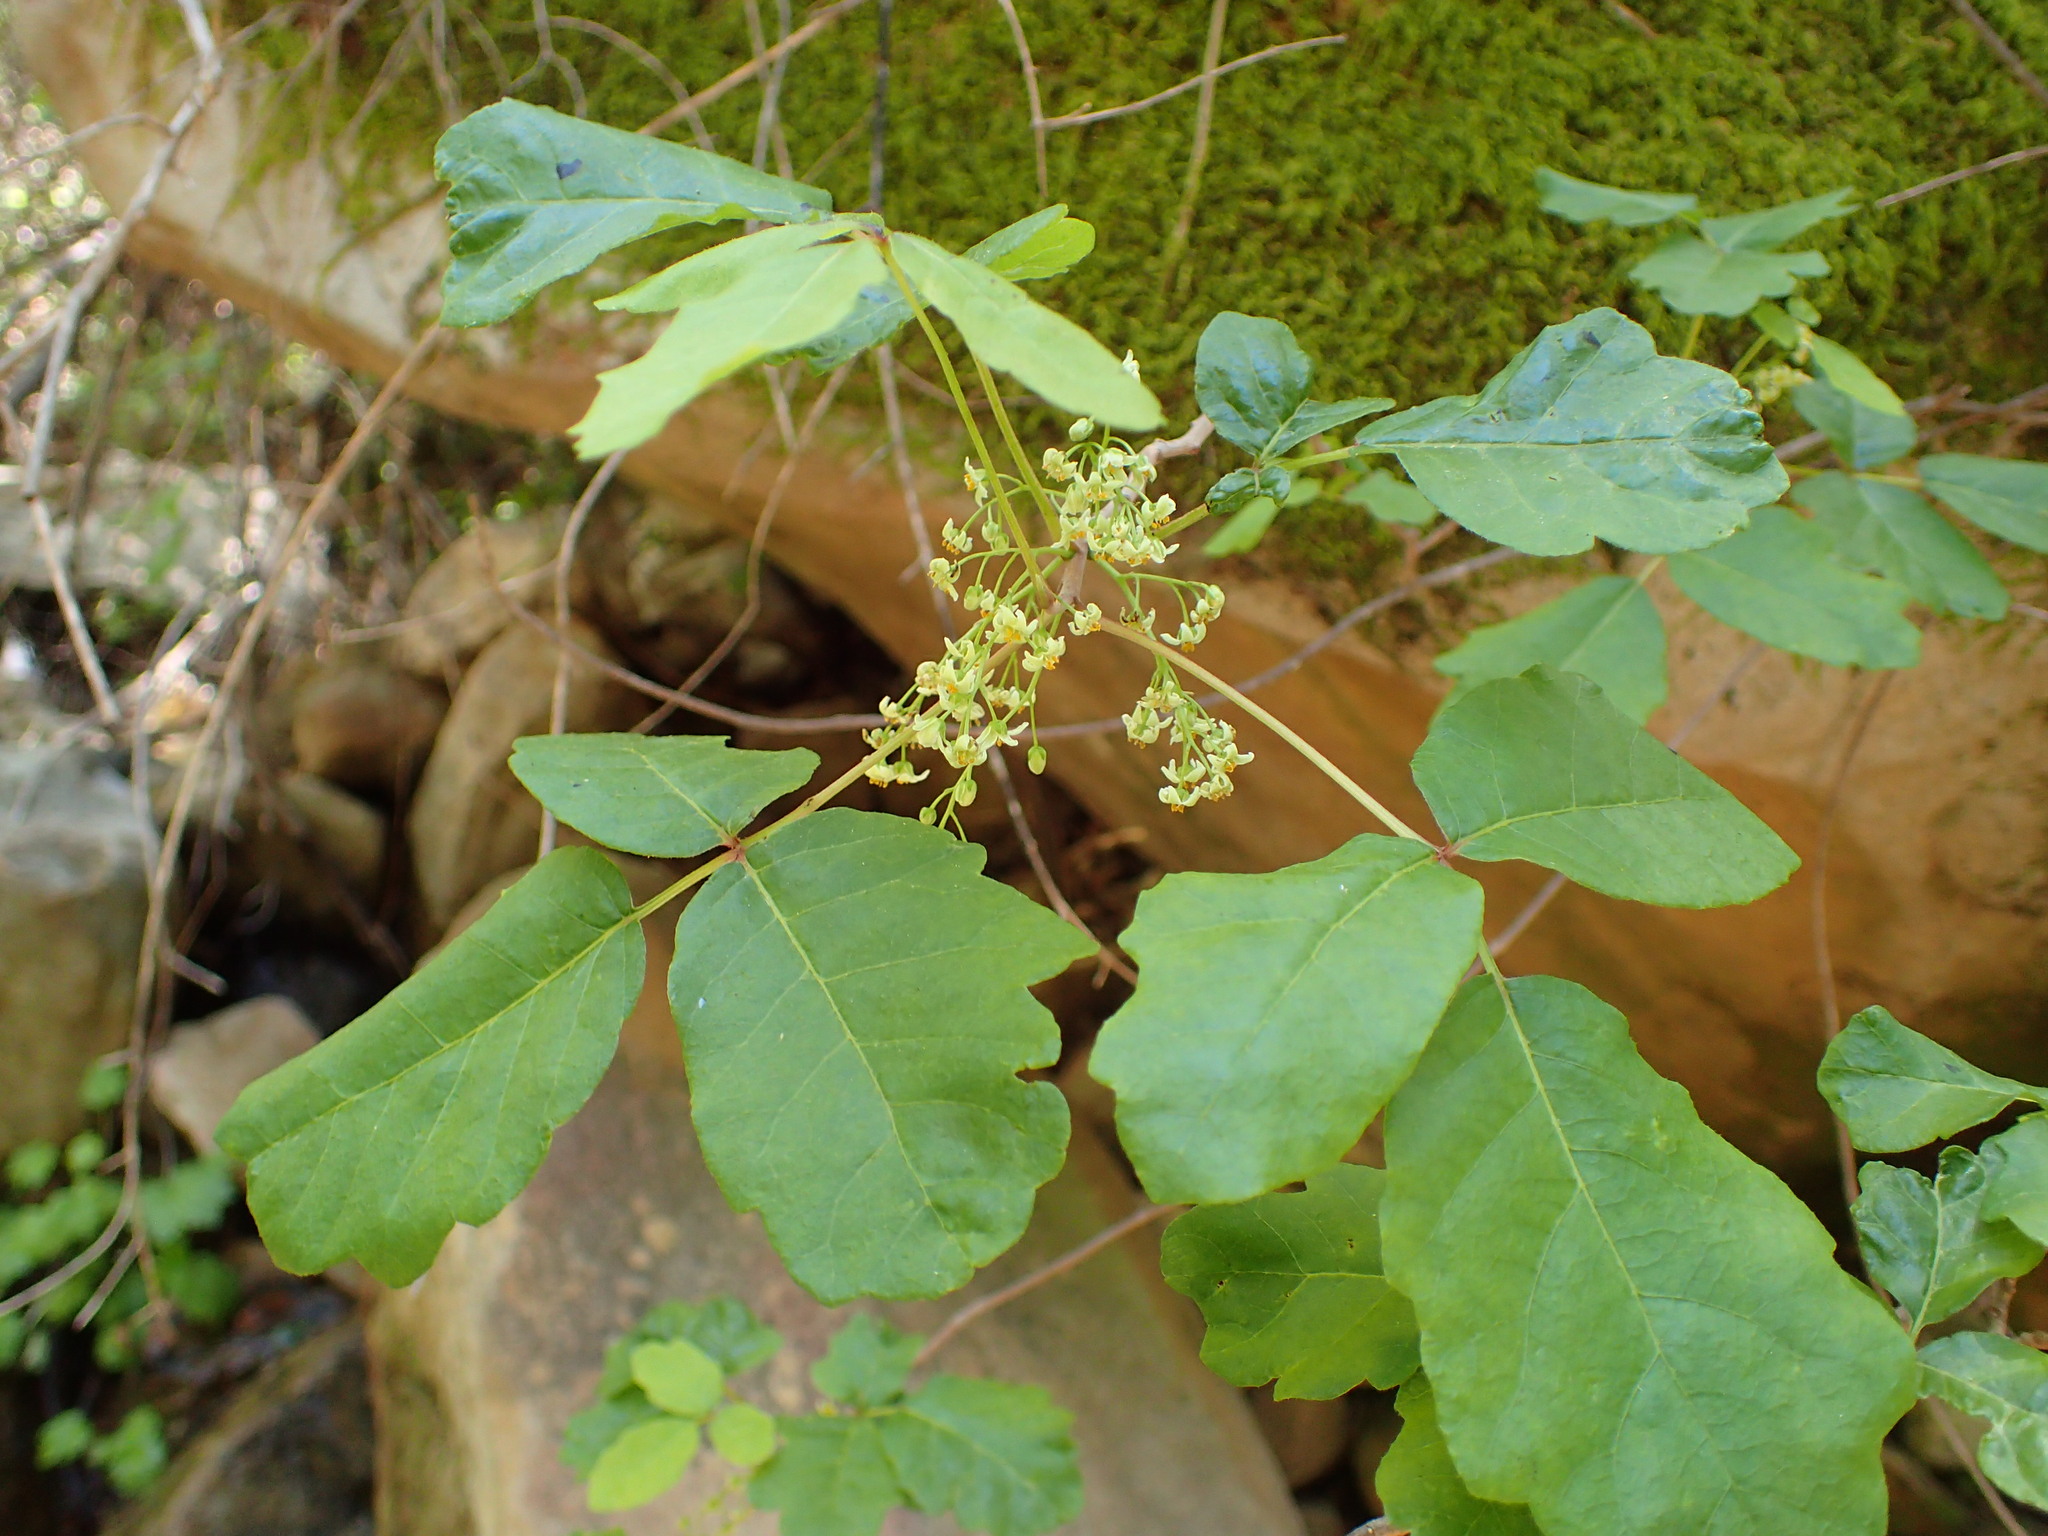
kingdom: Plantae
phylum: Tracheophyta
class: Magnoliopsida
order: Sapindales
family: Anacardiaceae
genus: Toxicodendron
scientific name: Toxicodendron diversilobum
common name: Pacific poison-oak
